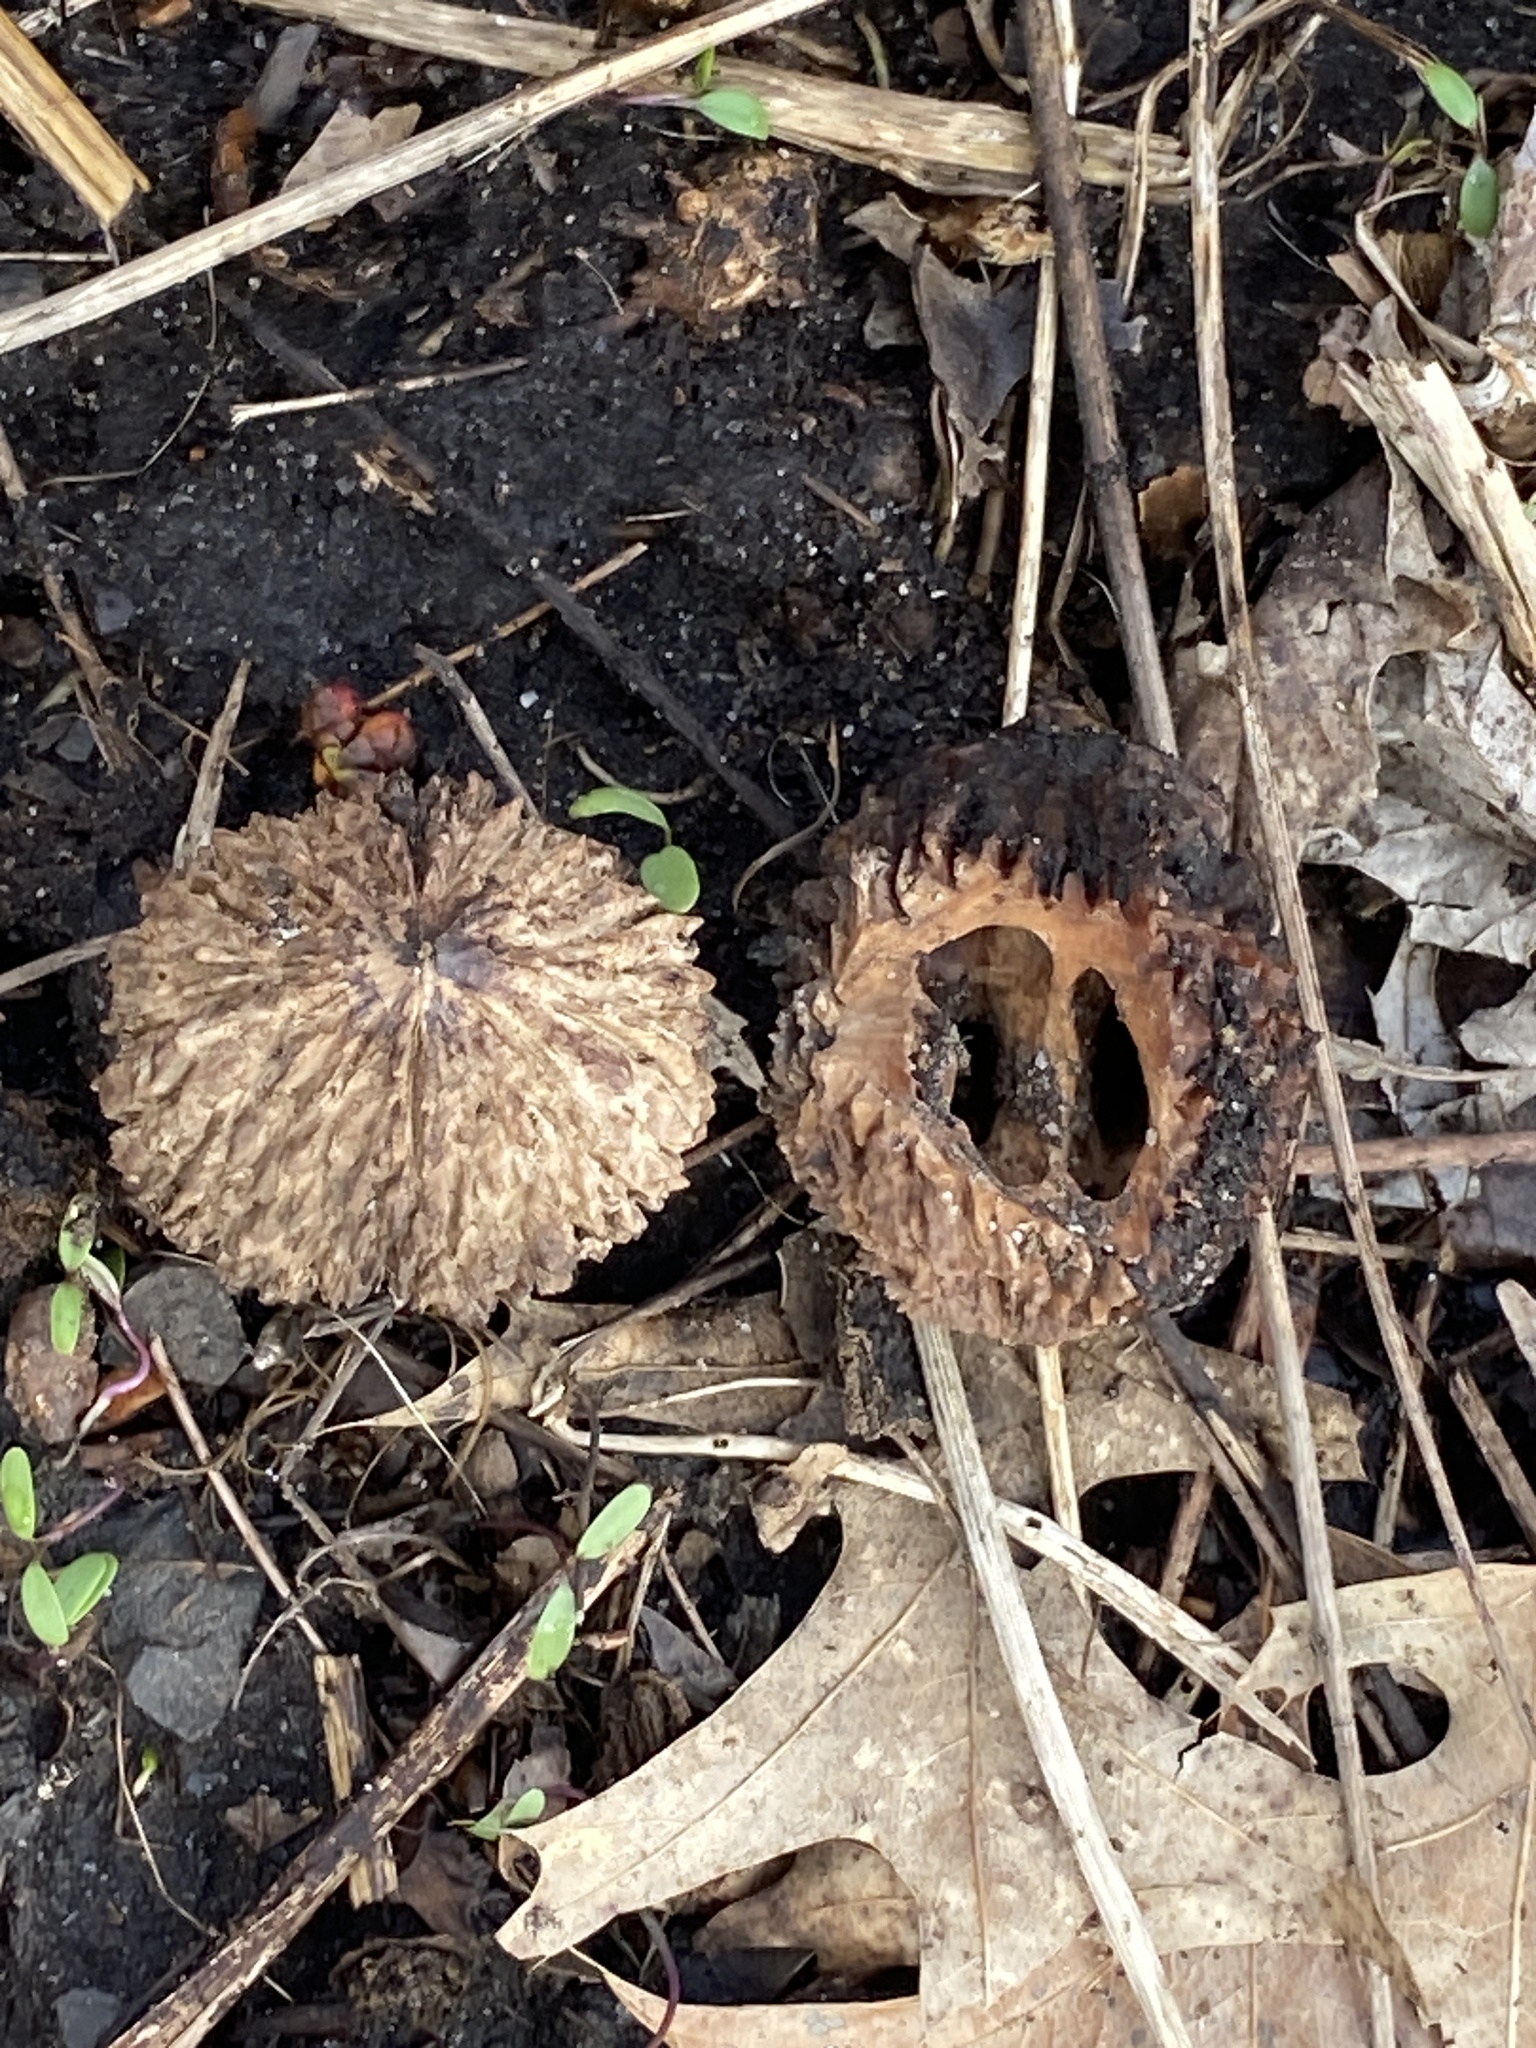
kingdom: Plantae
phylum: Tracheophyta
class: Magnoliopsida
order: Fagales
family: Juglandaceae
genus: Juglans
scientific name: Juglans nigra
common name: Black walnut
